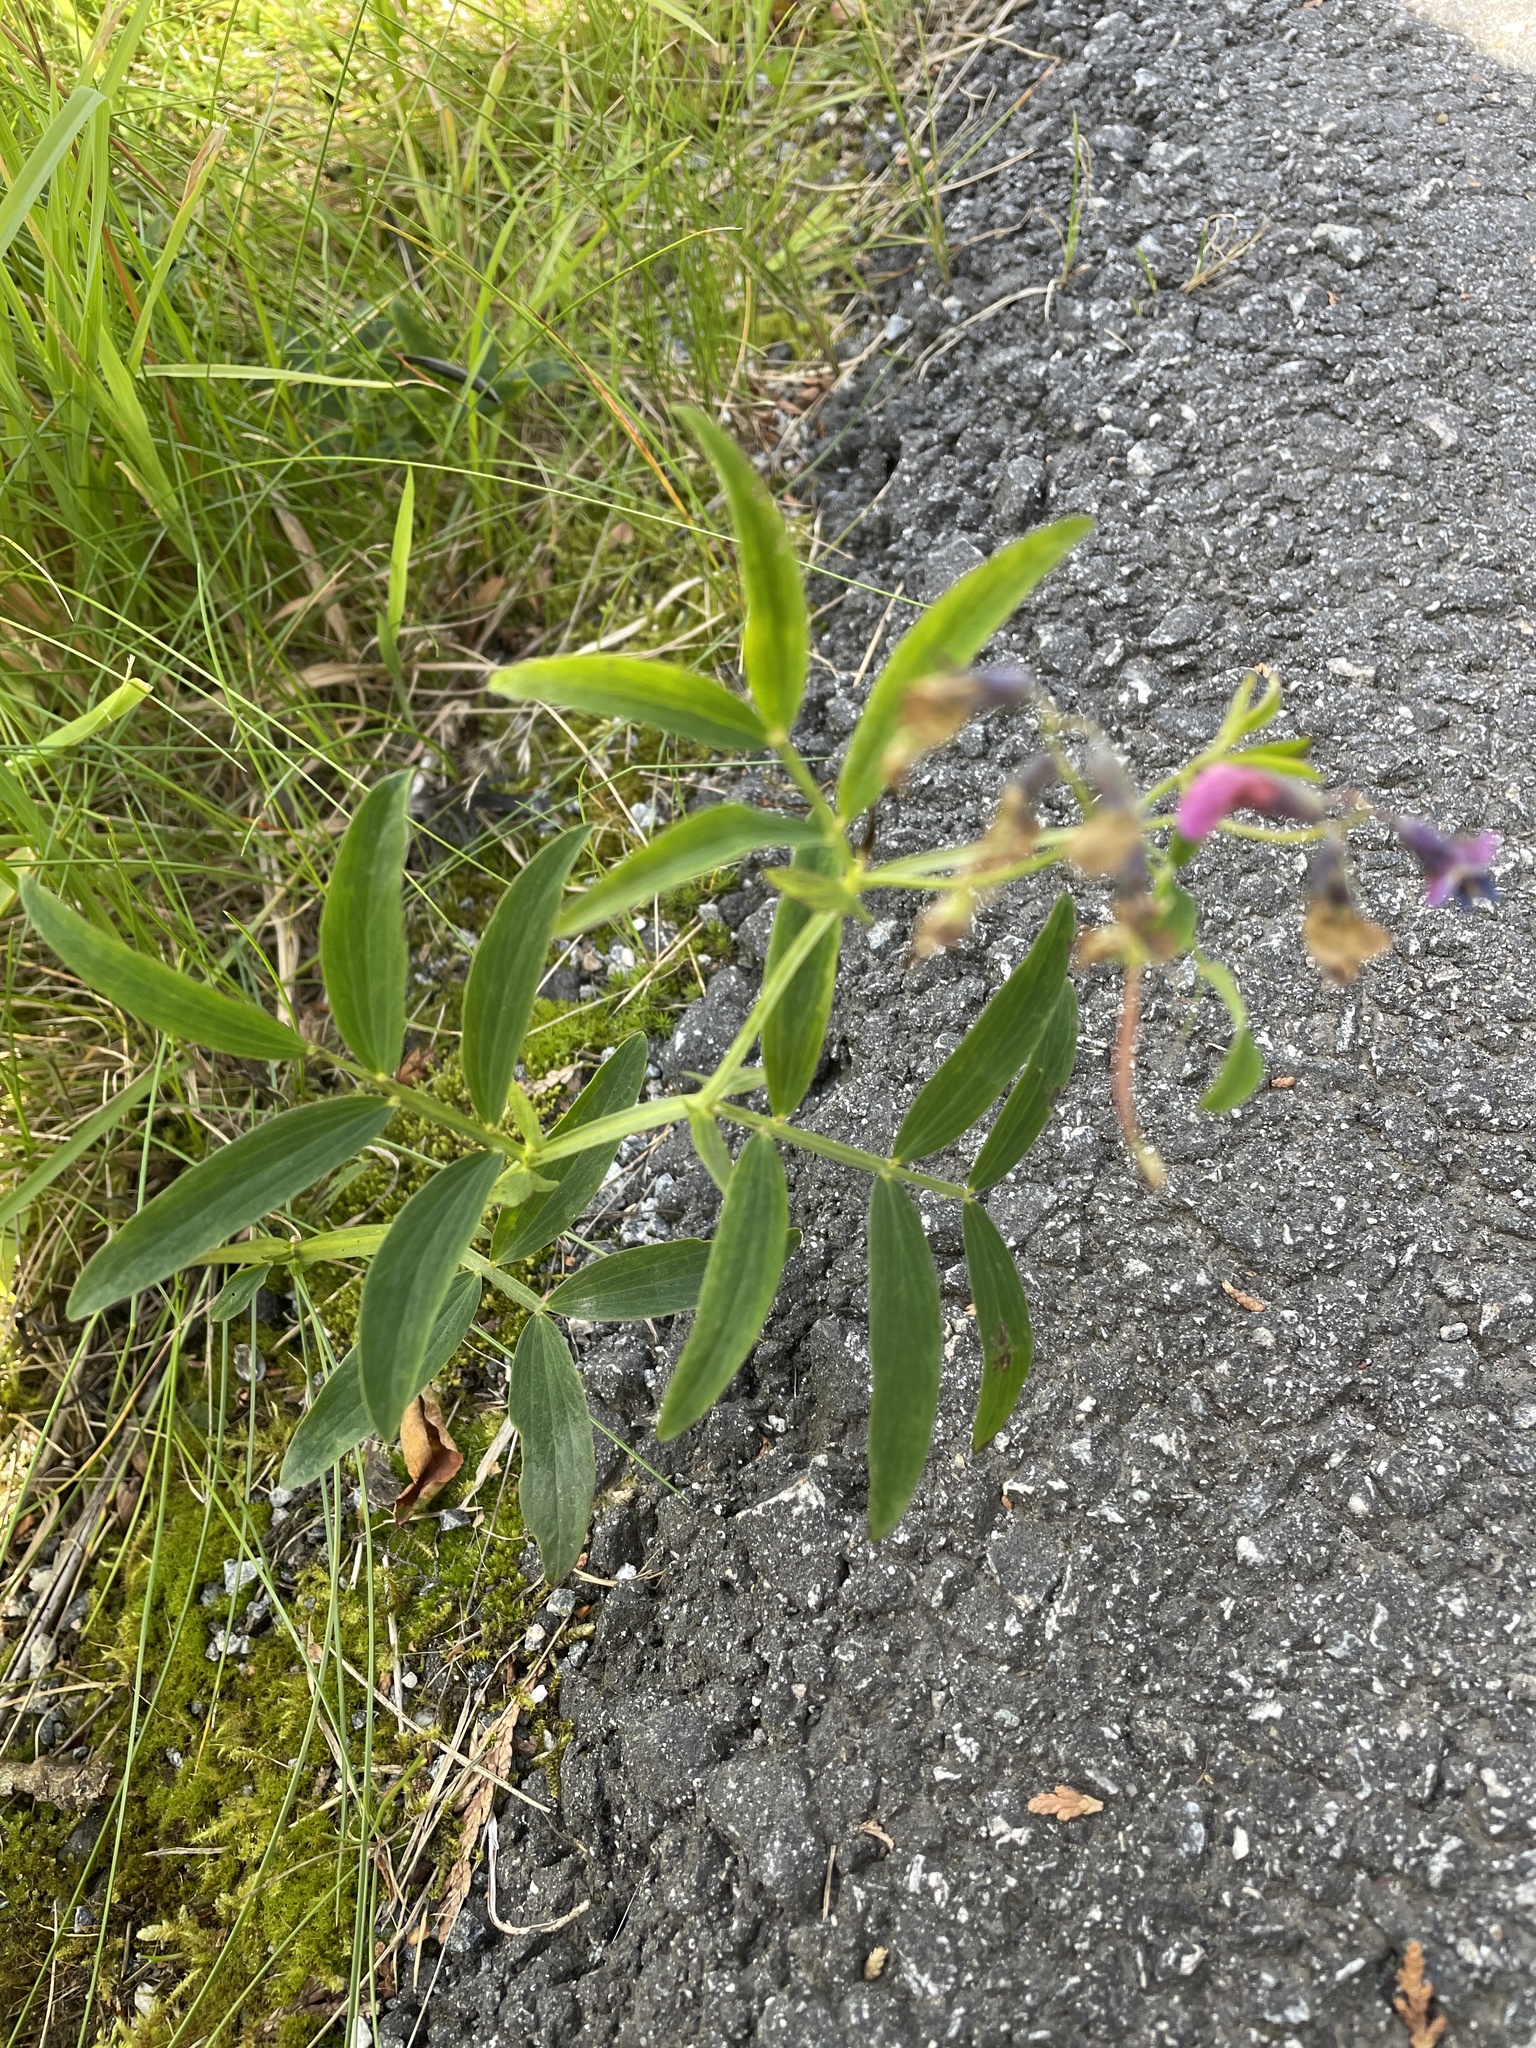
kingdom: Plantae
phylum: Tracheophyta
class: Magnoliopsida
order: Fabales
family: Fabaceae
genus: Lathyrus
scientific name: Lathyrus linifolius
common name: Bitter-vetch
